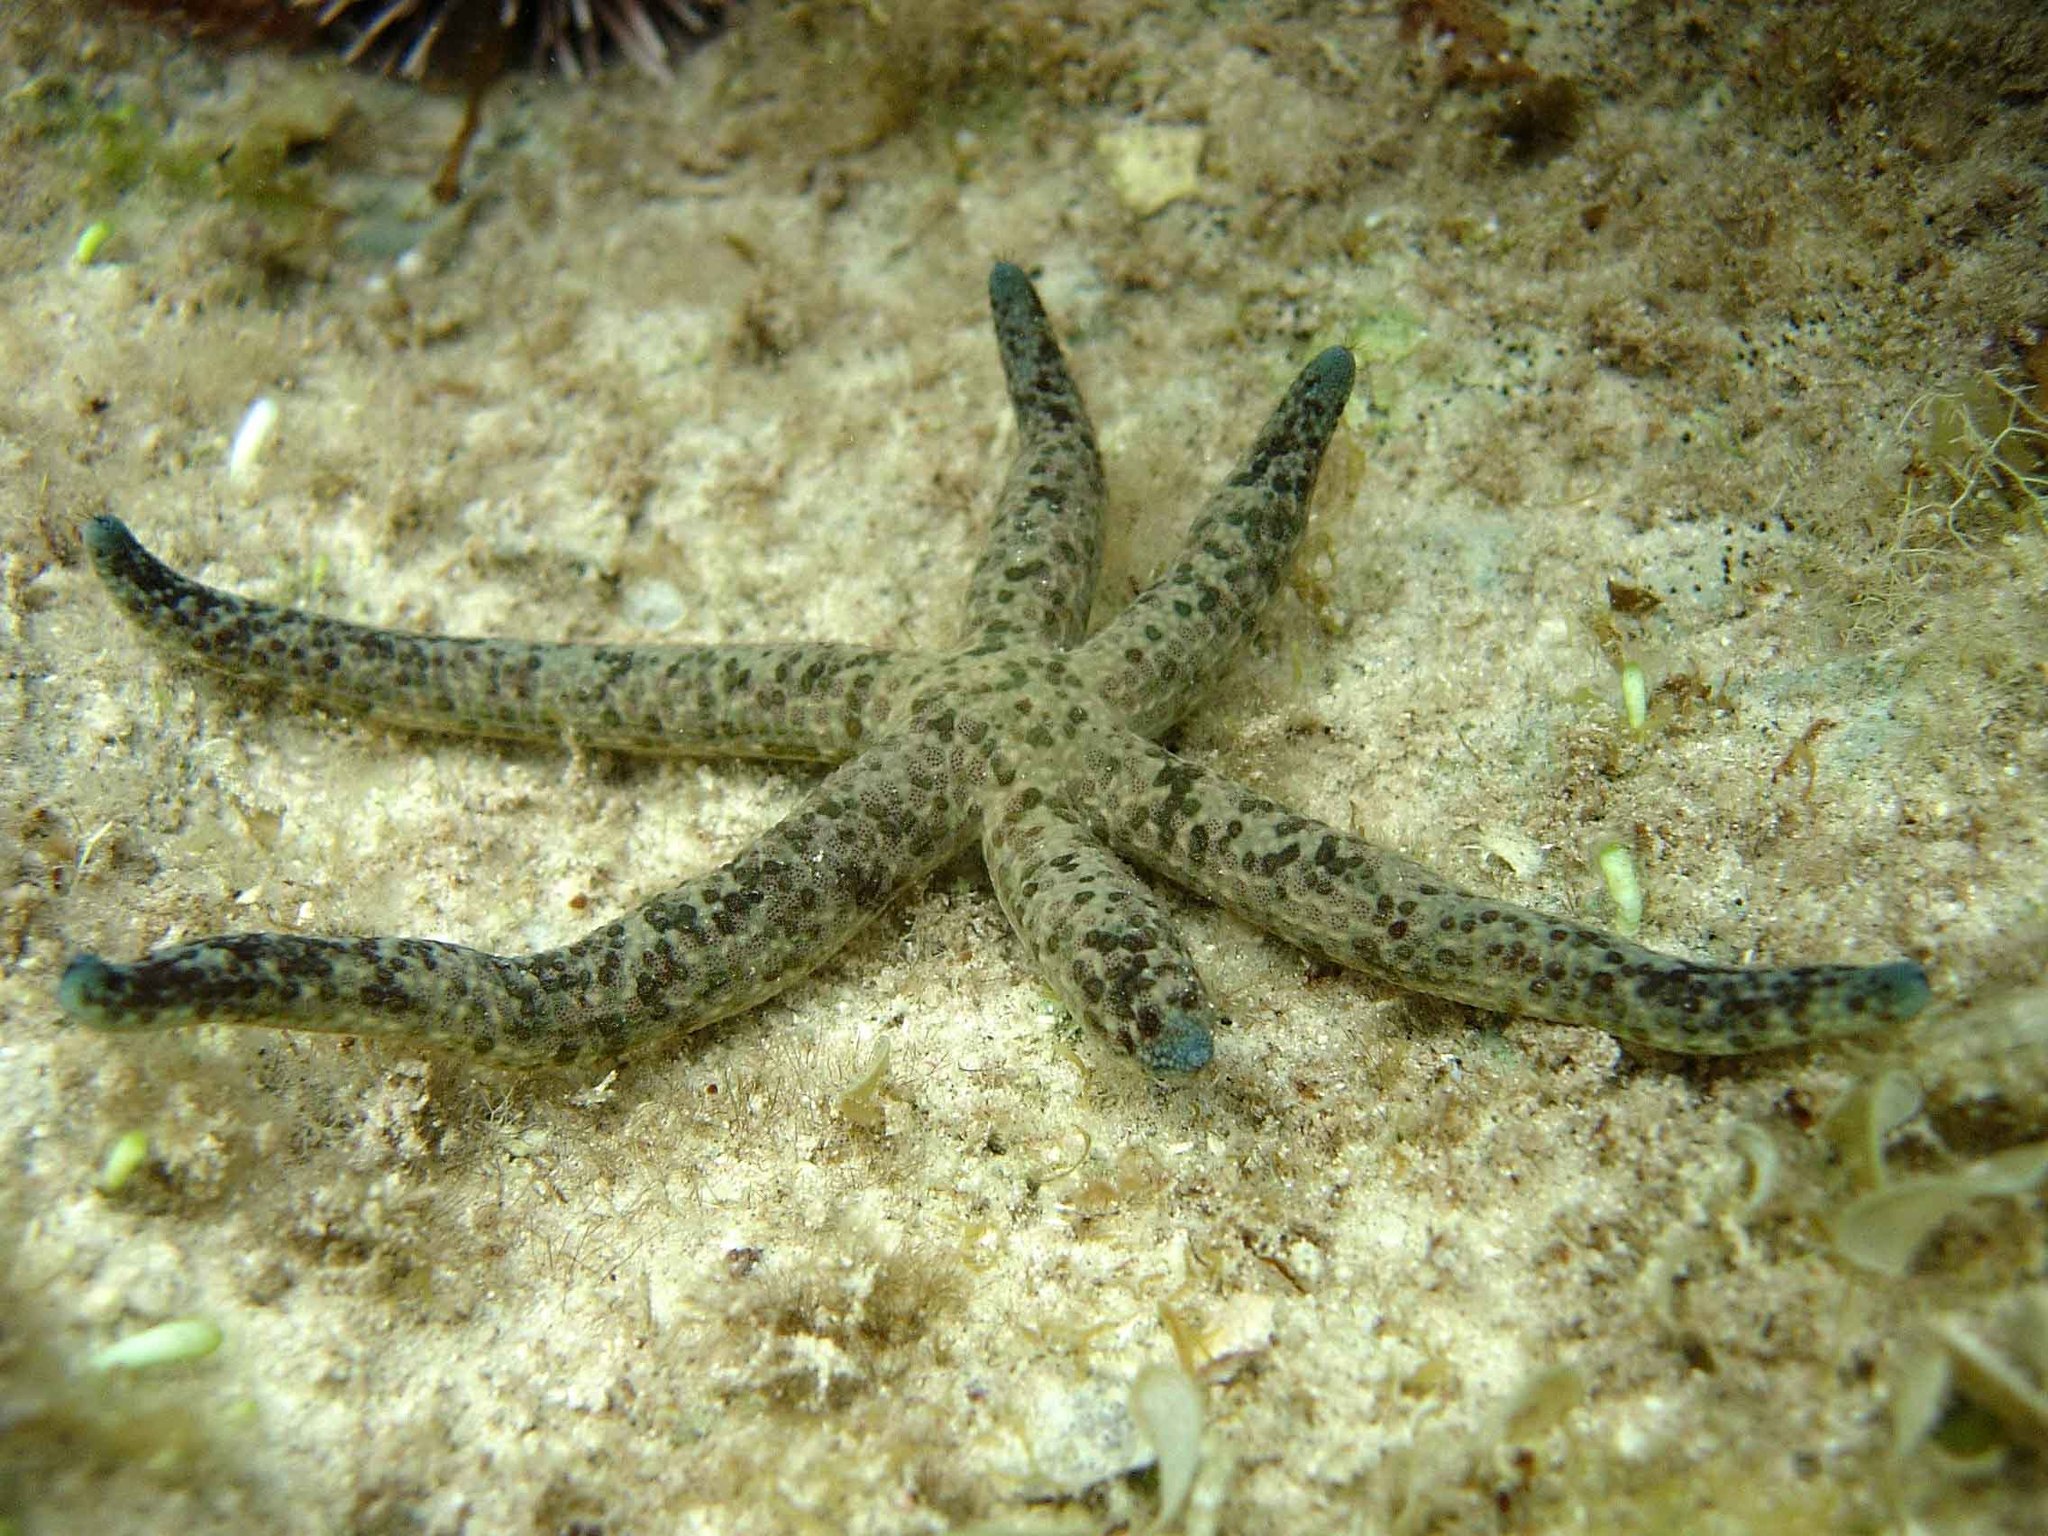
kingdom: Animalia
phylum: Echinodermata
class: Asteroidea
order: Valvatida
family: Ophidiasteridae
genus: Linckia
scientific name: Linckia multifora
